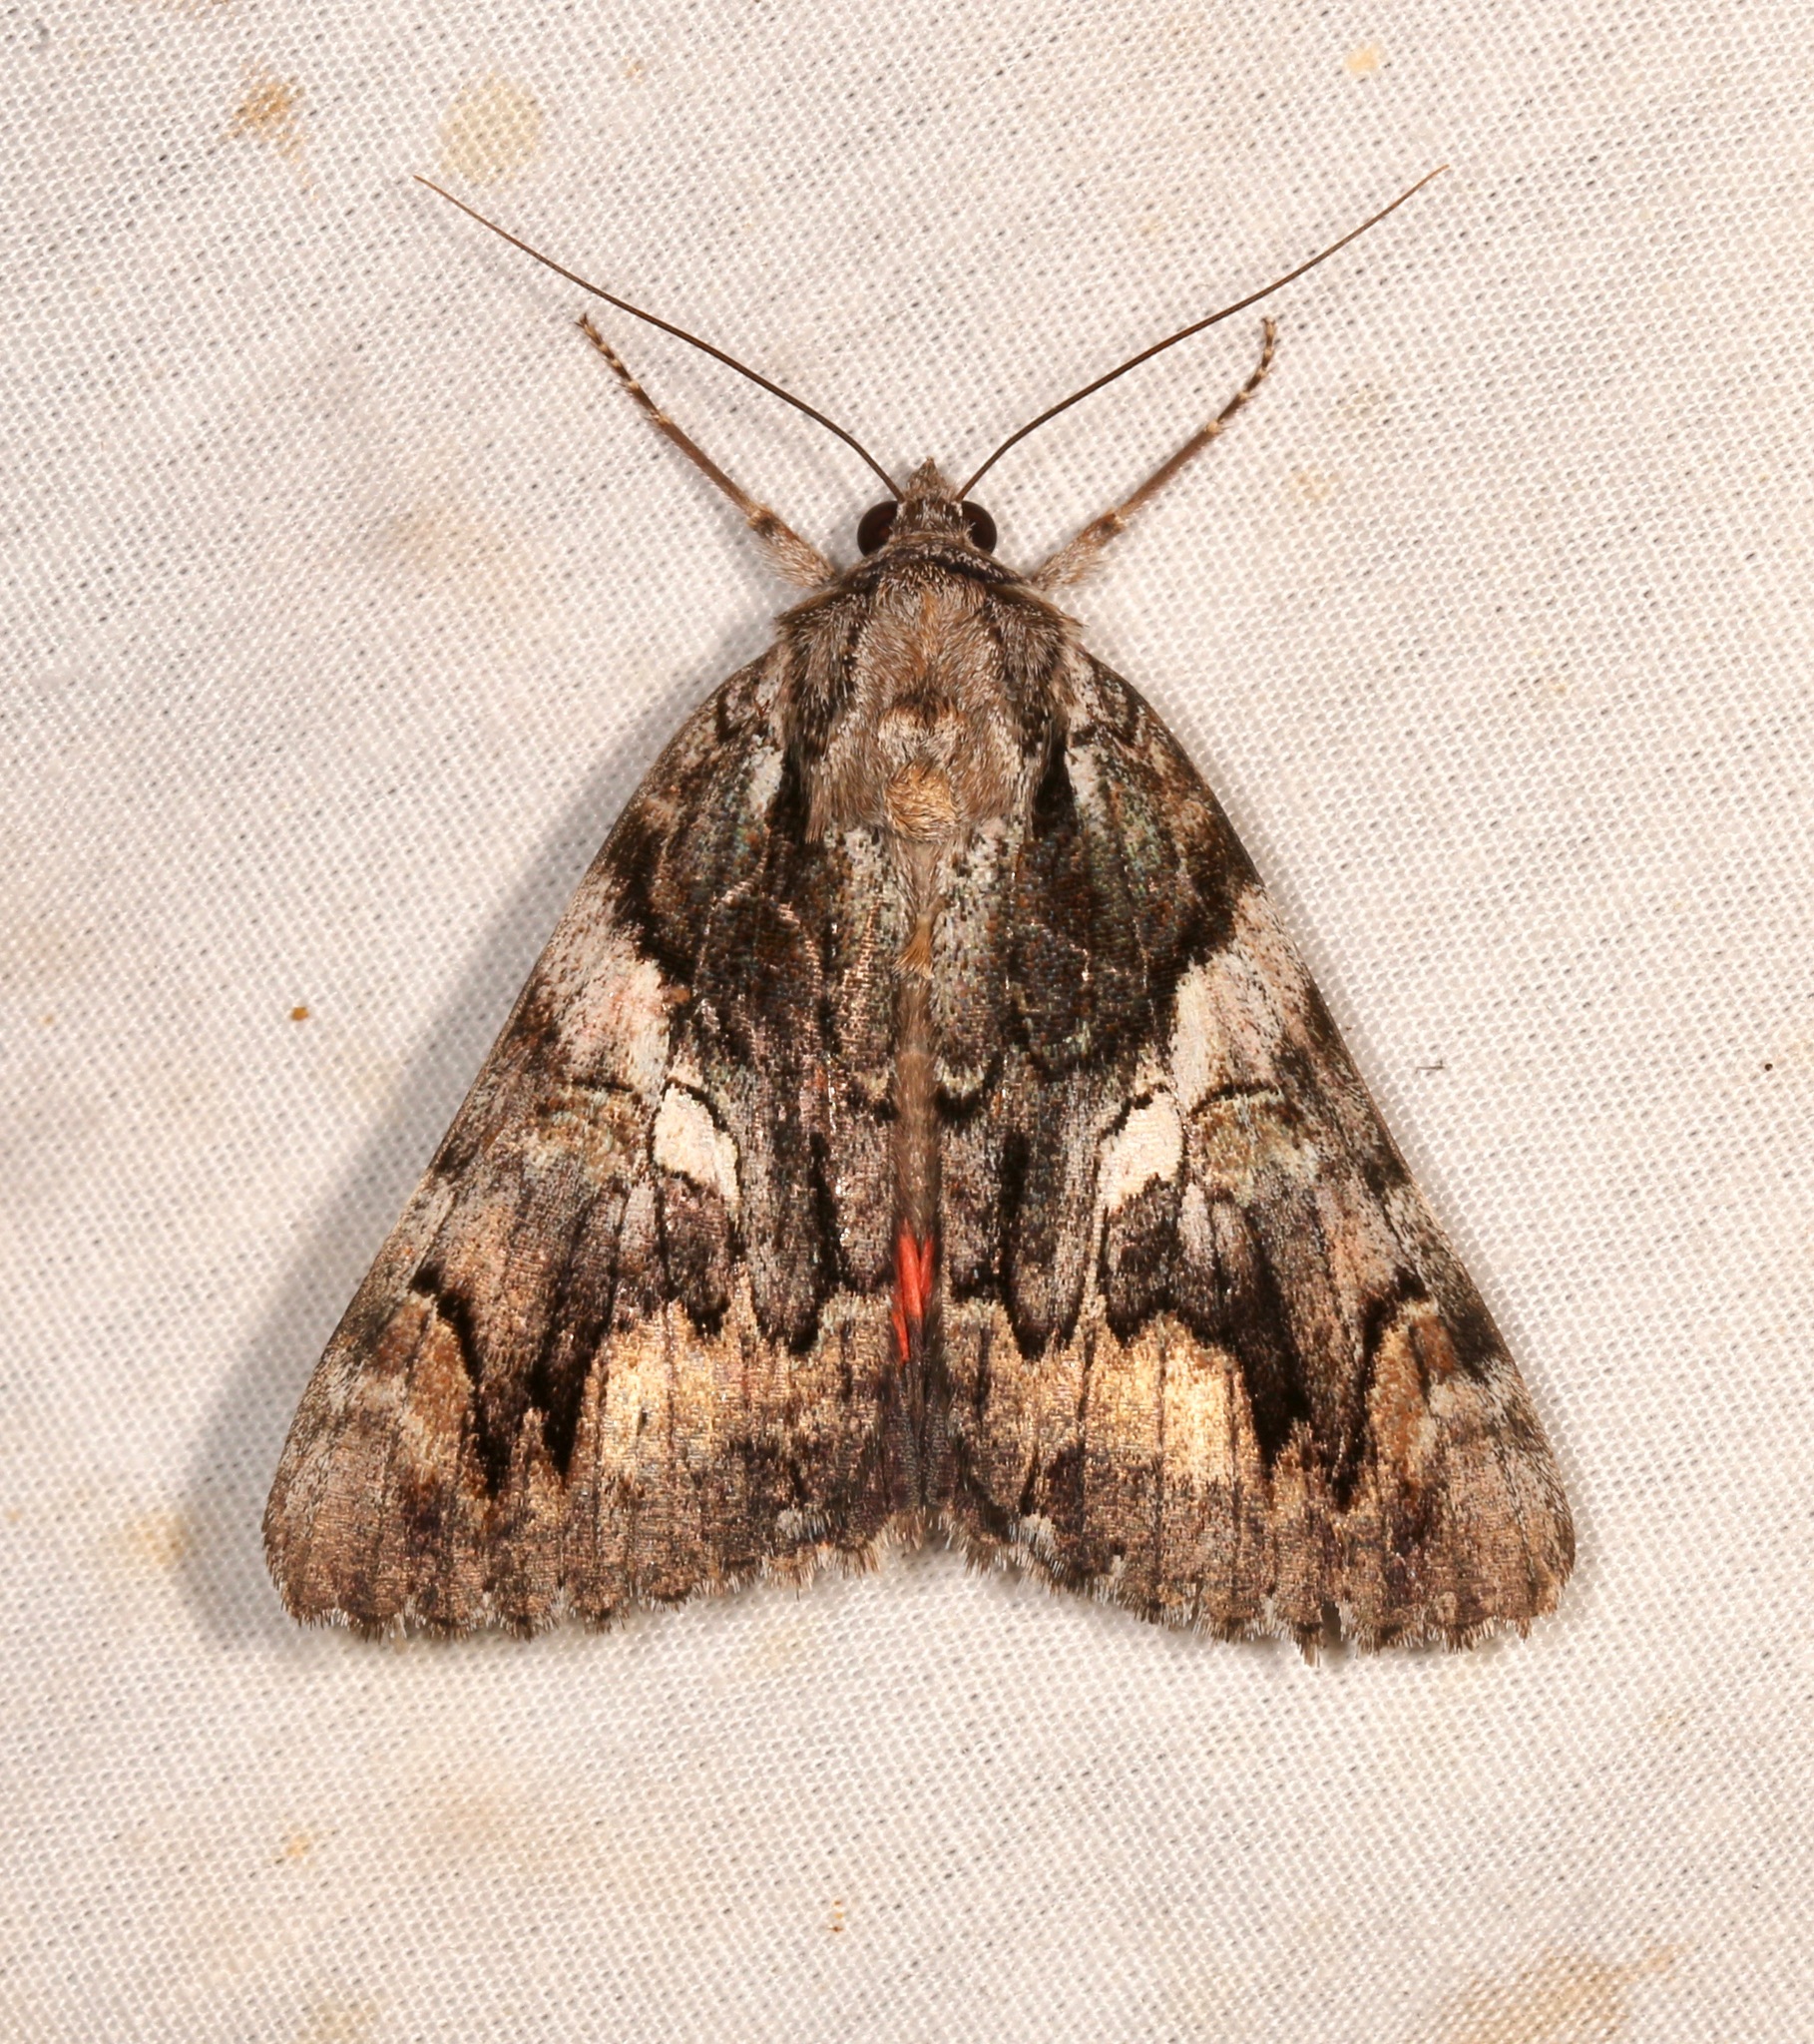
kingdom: Animalia
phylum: Arthropoda
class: Insecta
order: Lepidoptera
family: Erebidae
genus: Catocala
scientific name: Catocala verrilliana
